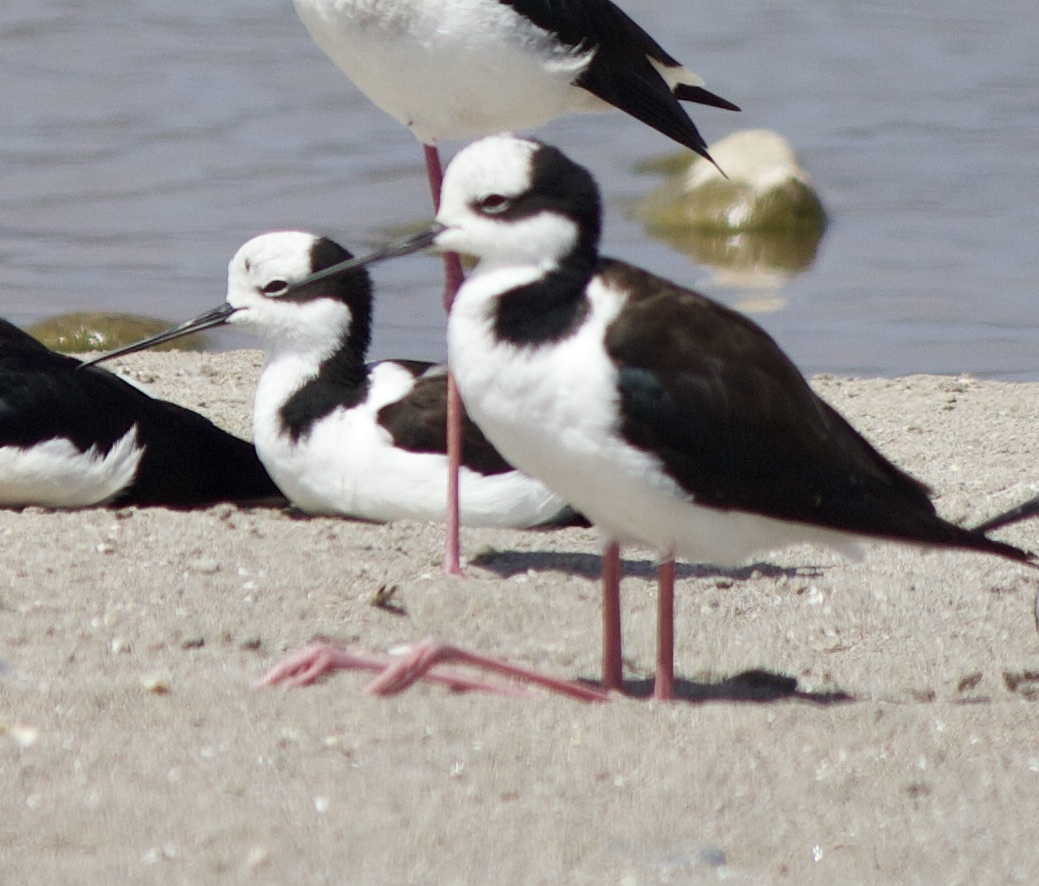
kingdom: Animalia
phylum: Chordata
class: Aves
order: Charadriiformes
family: Recurvirostridae
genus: Himantopus
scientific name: Himantopus mexicanus
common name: Black-necked stilt
